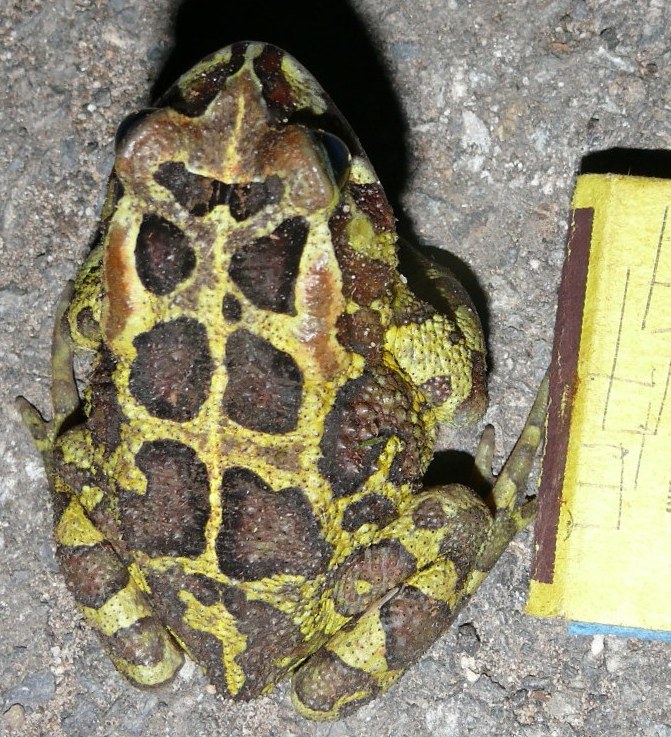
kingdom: Animalia
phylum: Chordata
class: Amphibia
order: Anura
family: Bufonidae
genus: Sclerophrys
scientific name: Sclerophrys pantherina
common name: Panther toad
